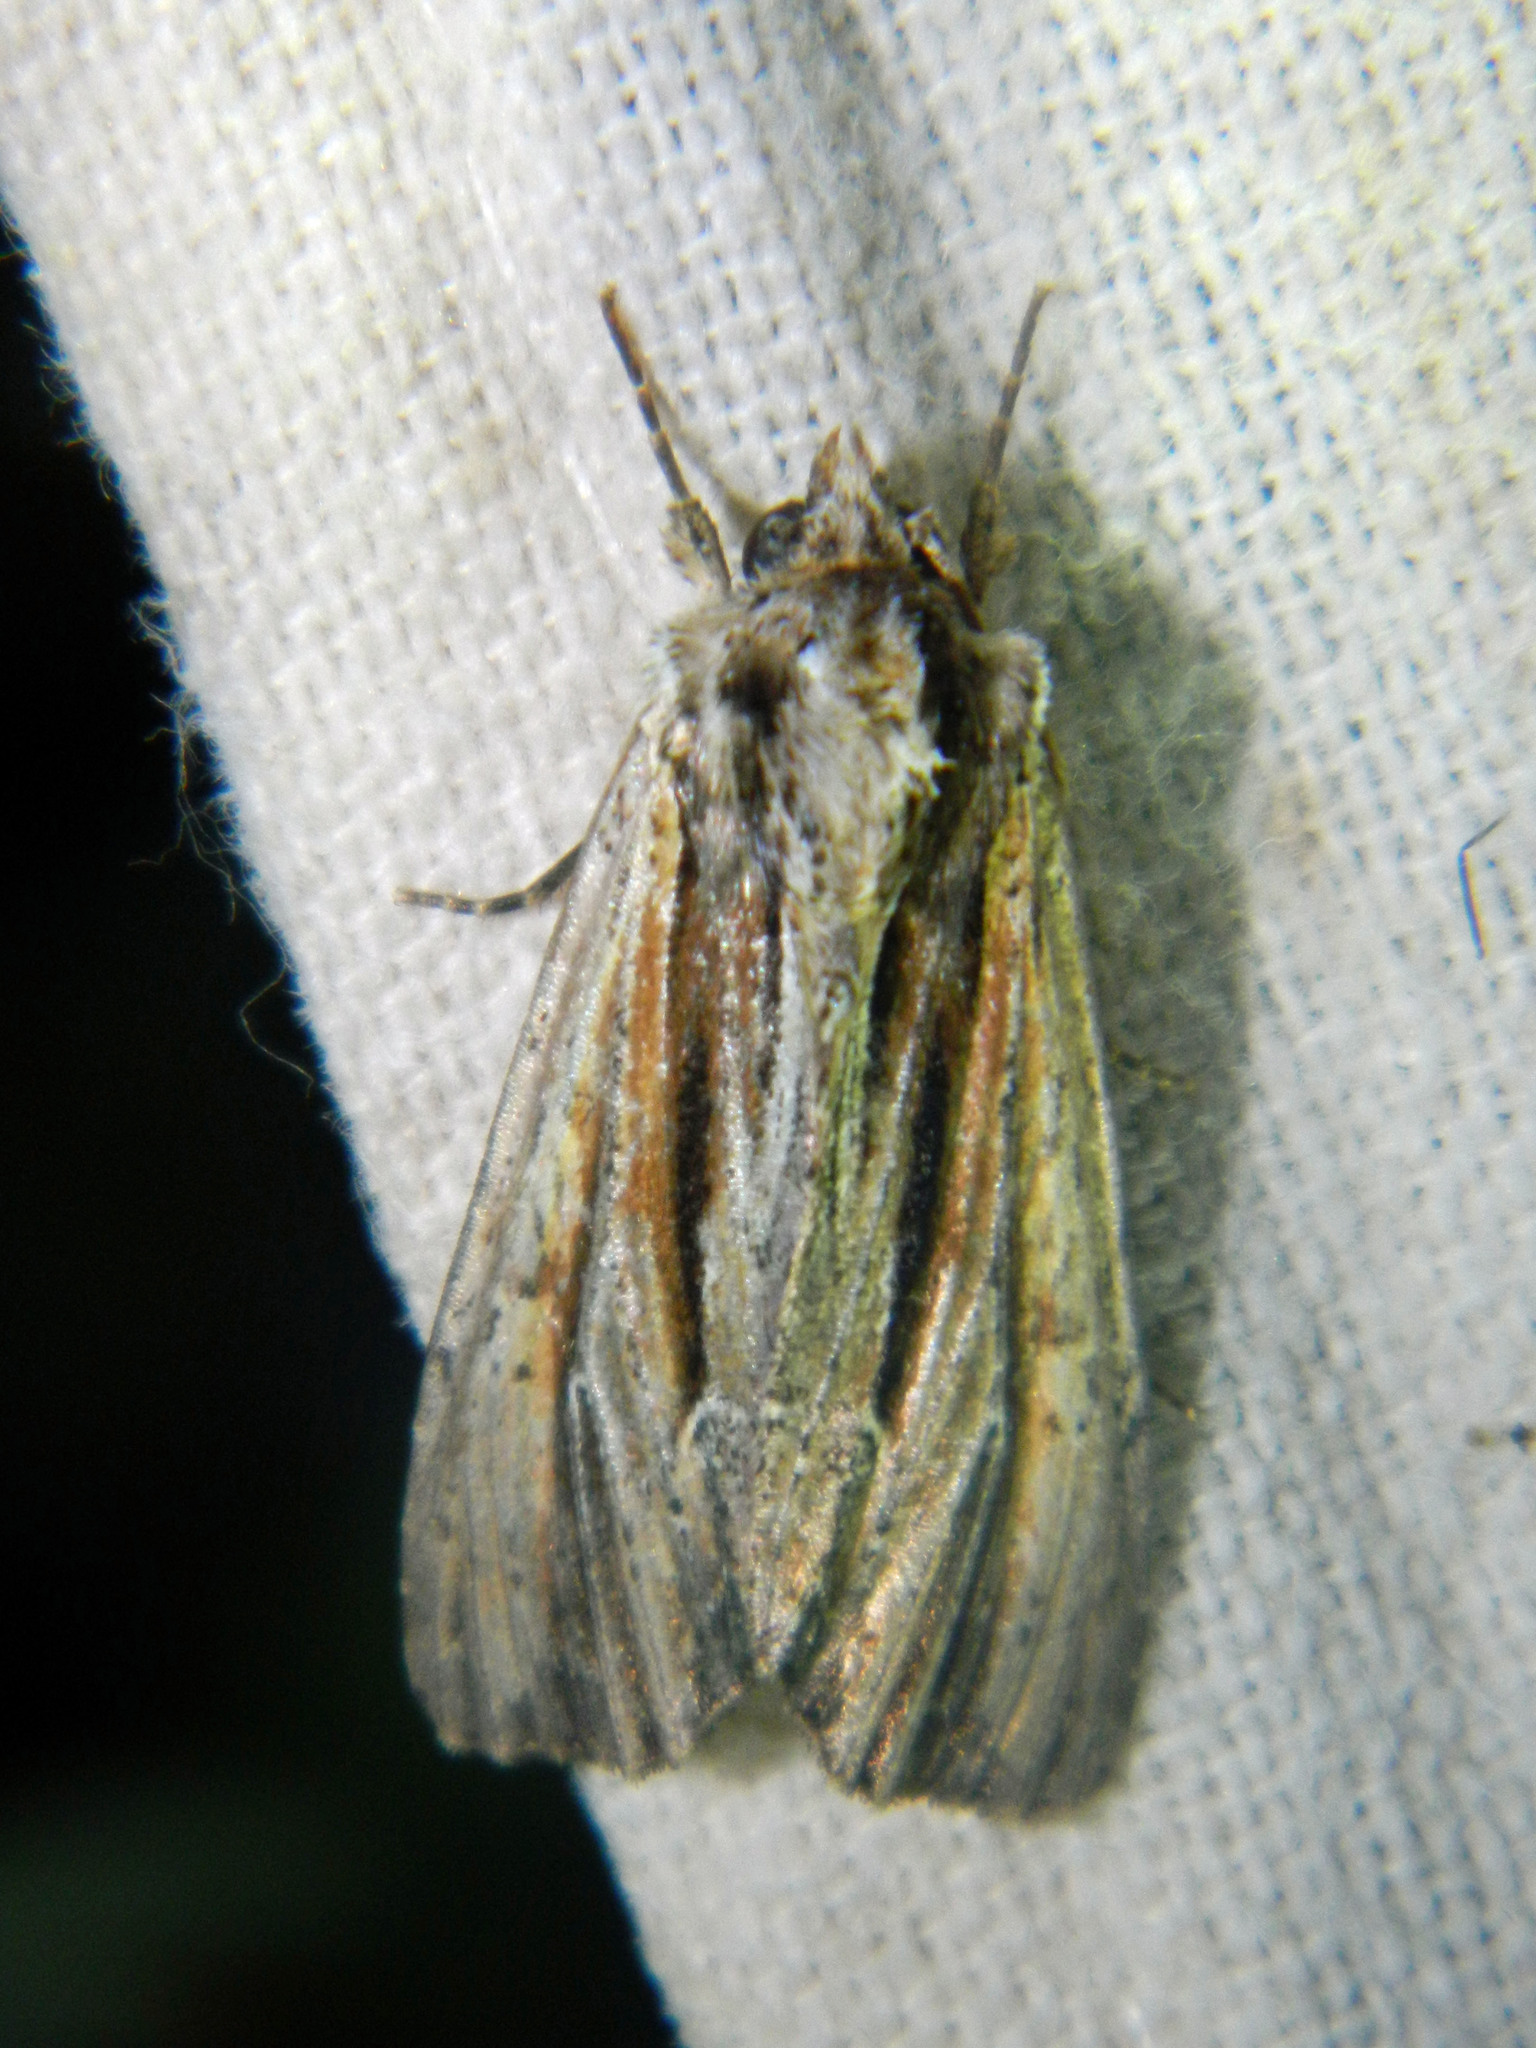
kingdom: Animalia
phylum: Arthropoda
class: Insecta
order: Lepidoptera
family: Noctuidae
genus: Apamea
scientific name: Apamea verbascoides
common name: Mullein apamea moth
